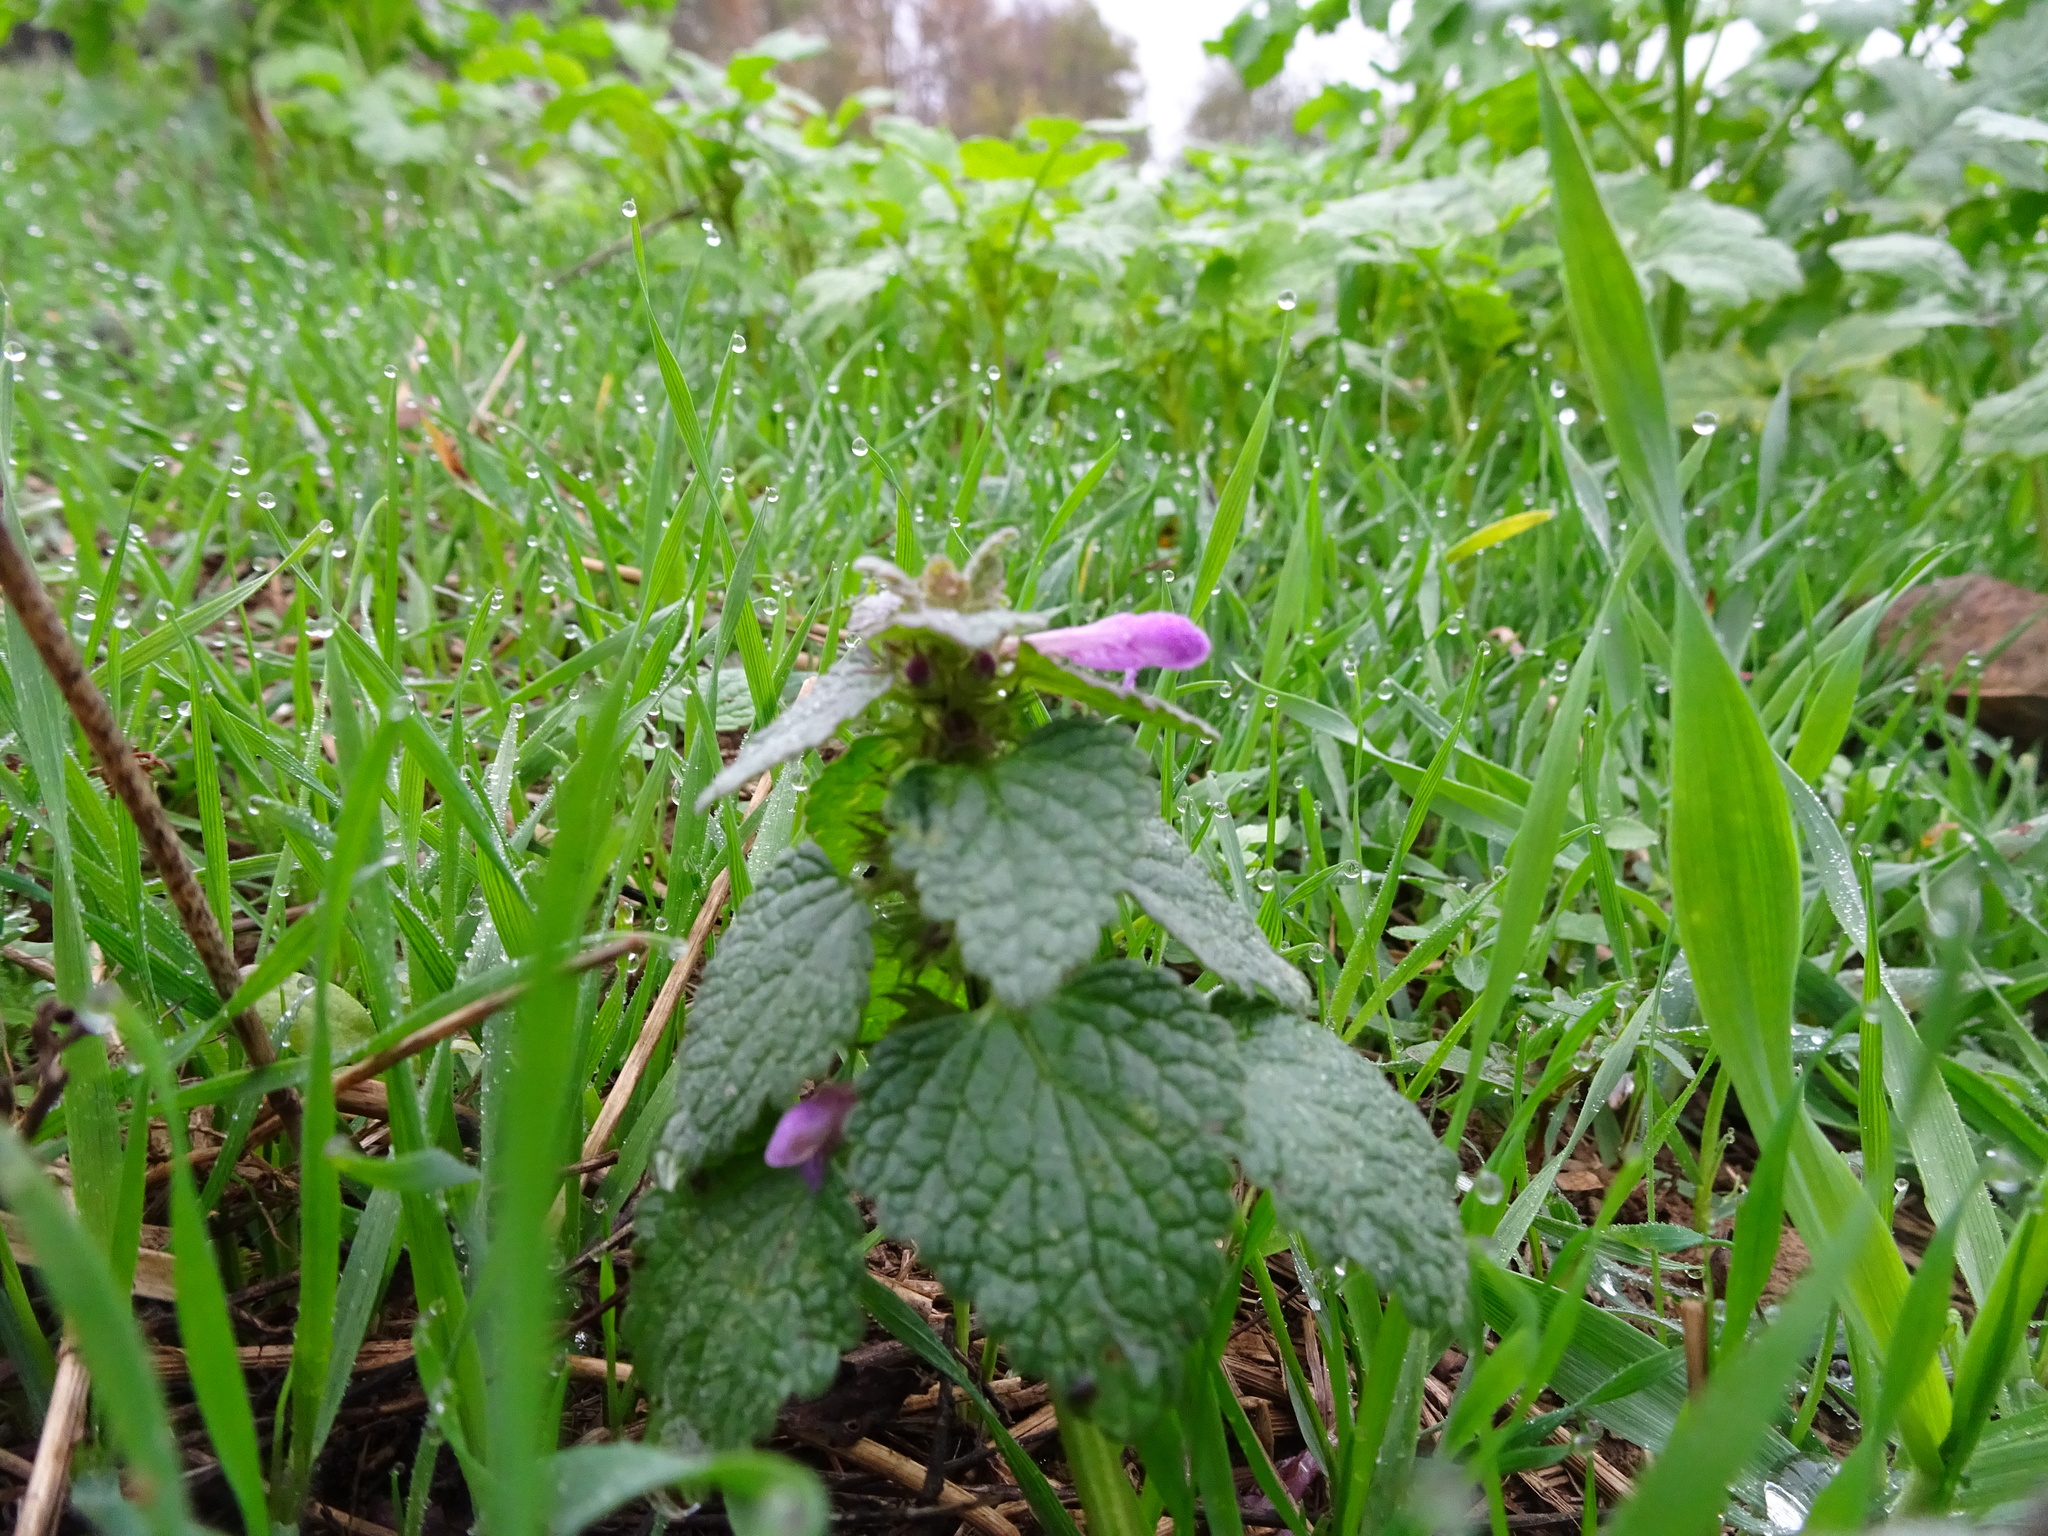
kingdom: Plantae
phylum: Tracheophyta
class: Magnoliopsida
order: Lamiales
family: Lamiaceae
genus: Lamium
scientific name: Lamium purpureum
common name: Red dead-nettle
